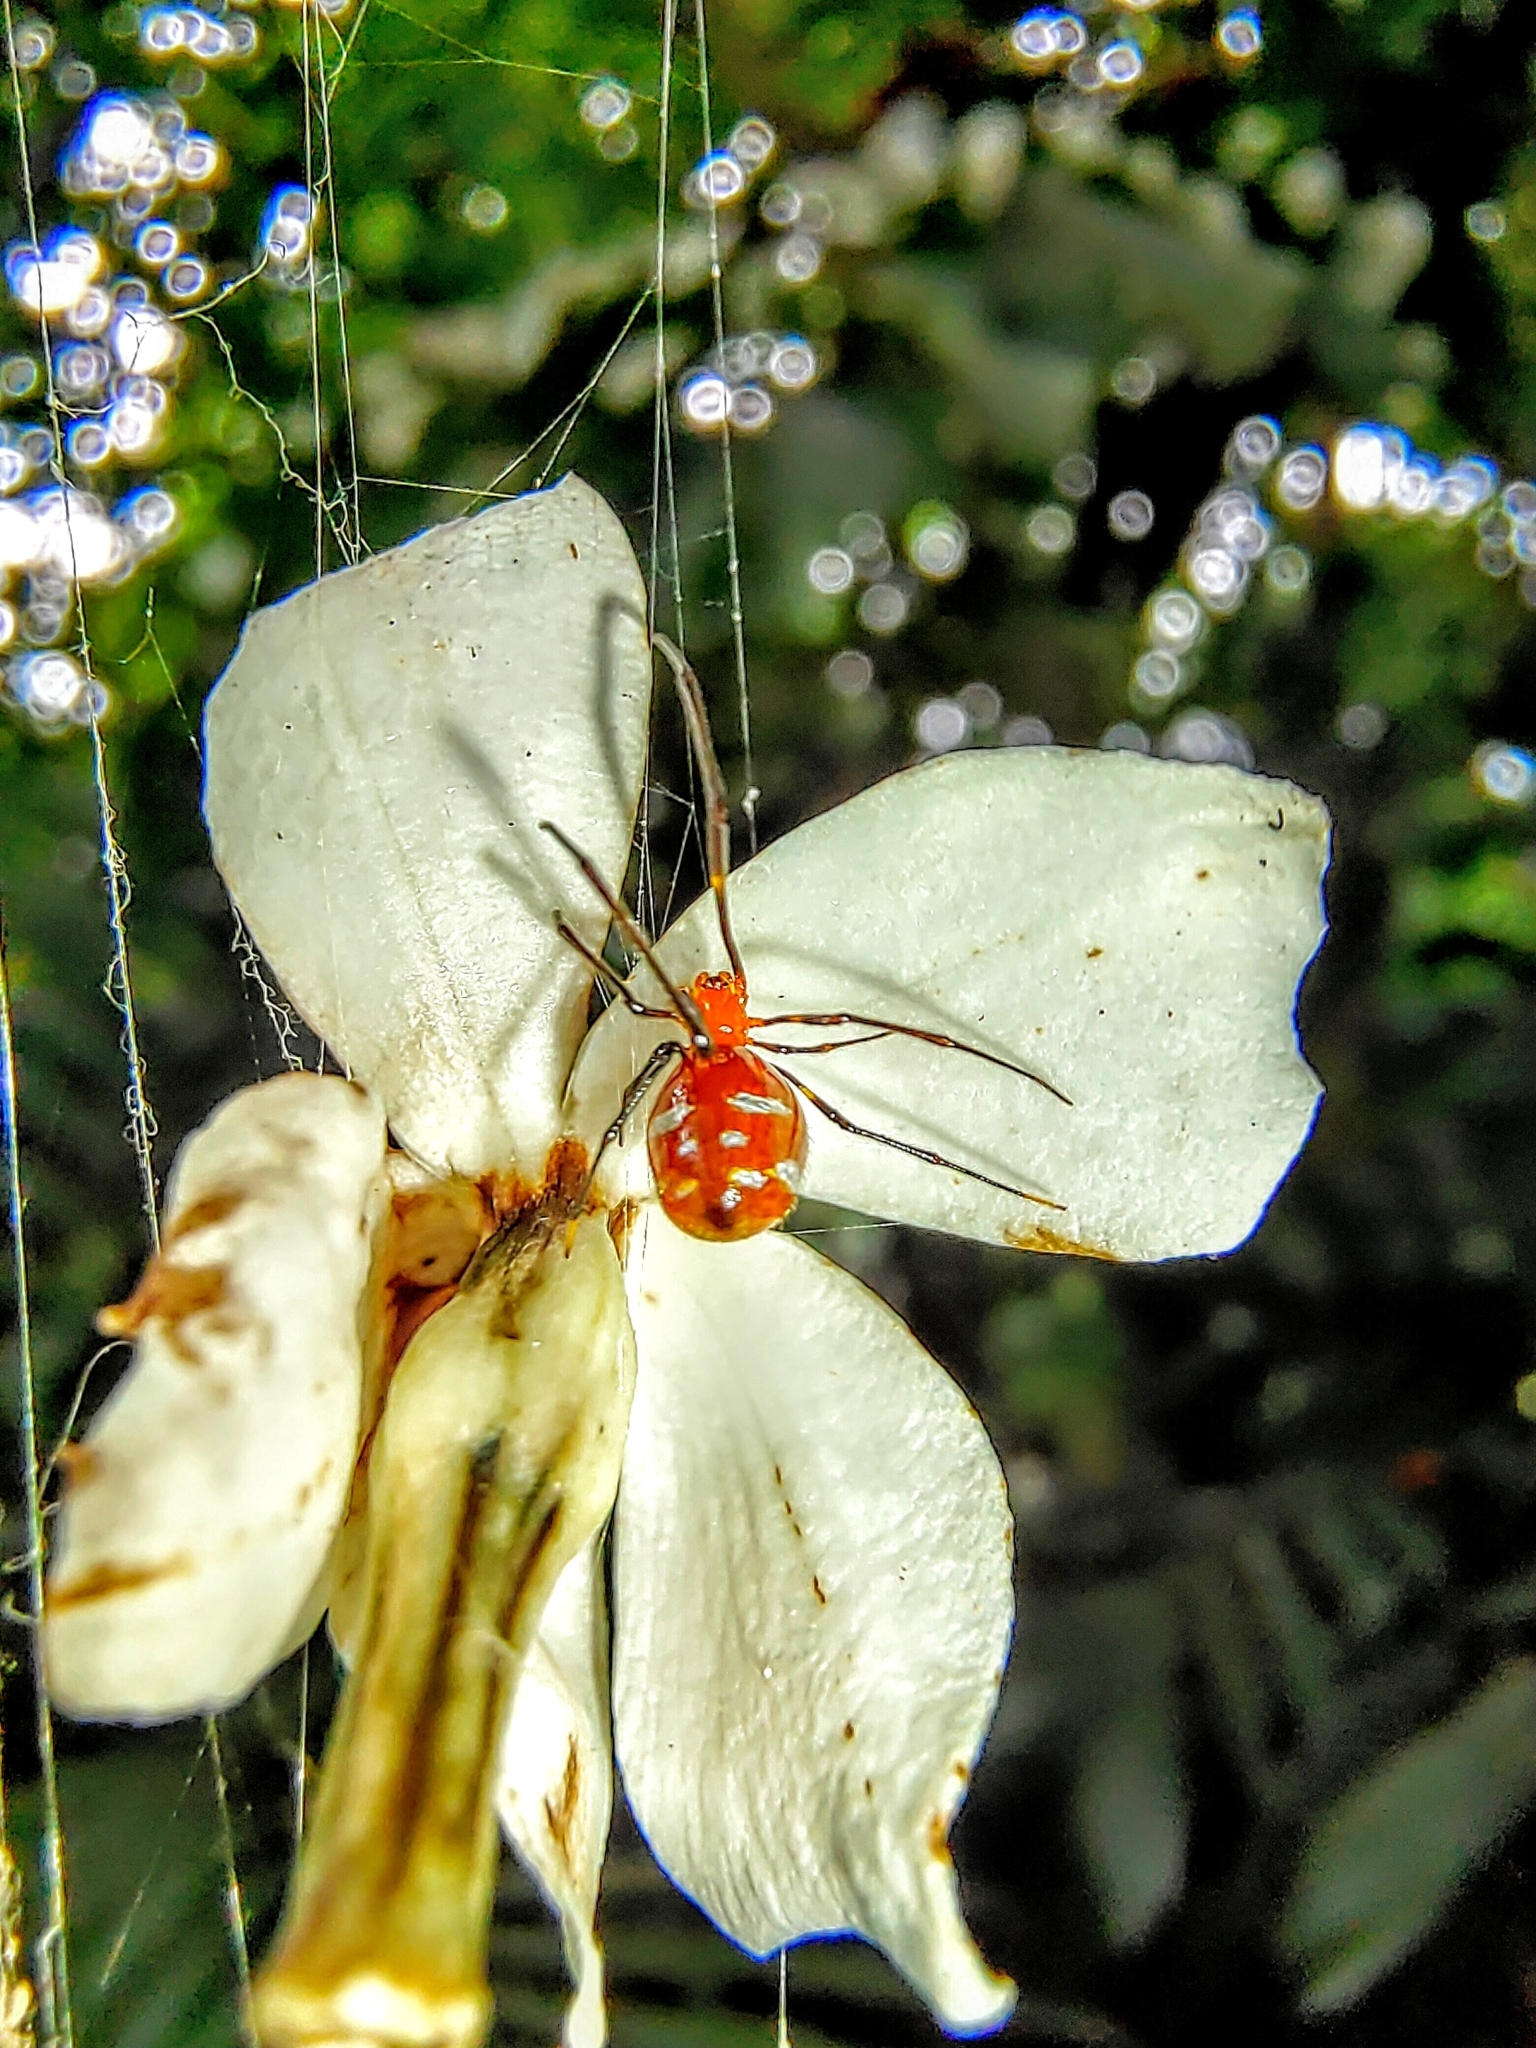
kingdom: Animalia
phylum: Arthropoda
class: Arachnida
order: Araneae
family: Theridiidae
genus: Argyrodes
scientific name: Argyrodes flavescens
